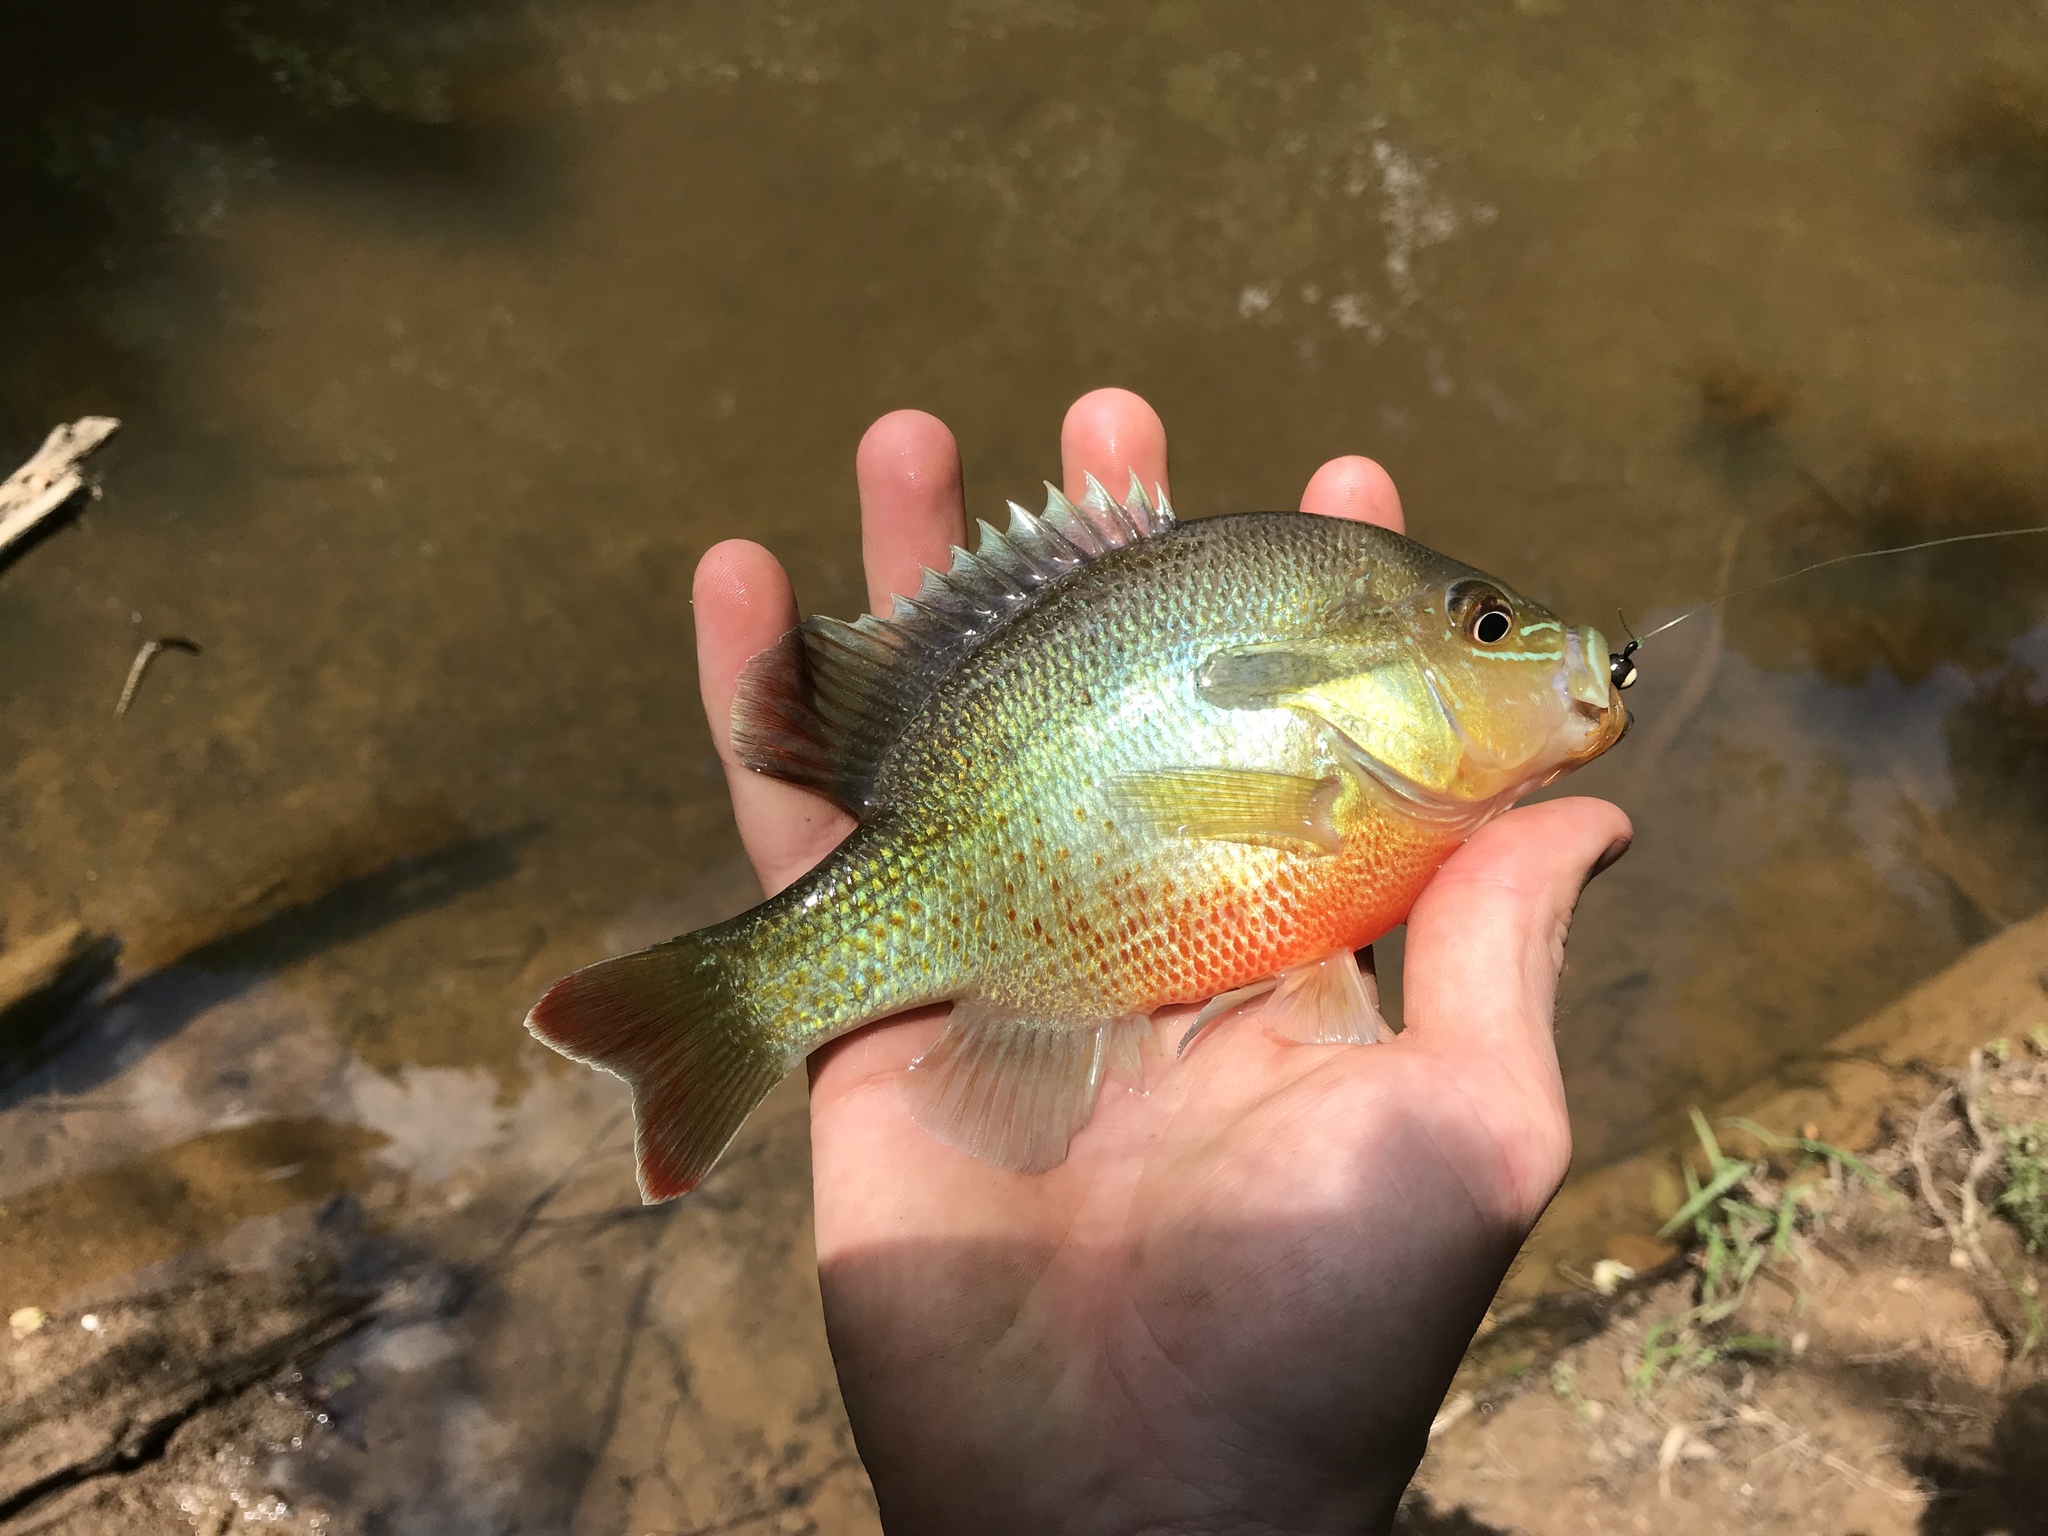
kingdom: Animalia
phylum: Chordata
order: Perciformes
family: Centrarchidae
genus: Lepomis
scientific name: Lepomis auritus
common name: Redbreast sunfish
